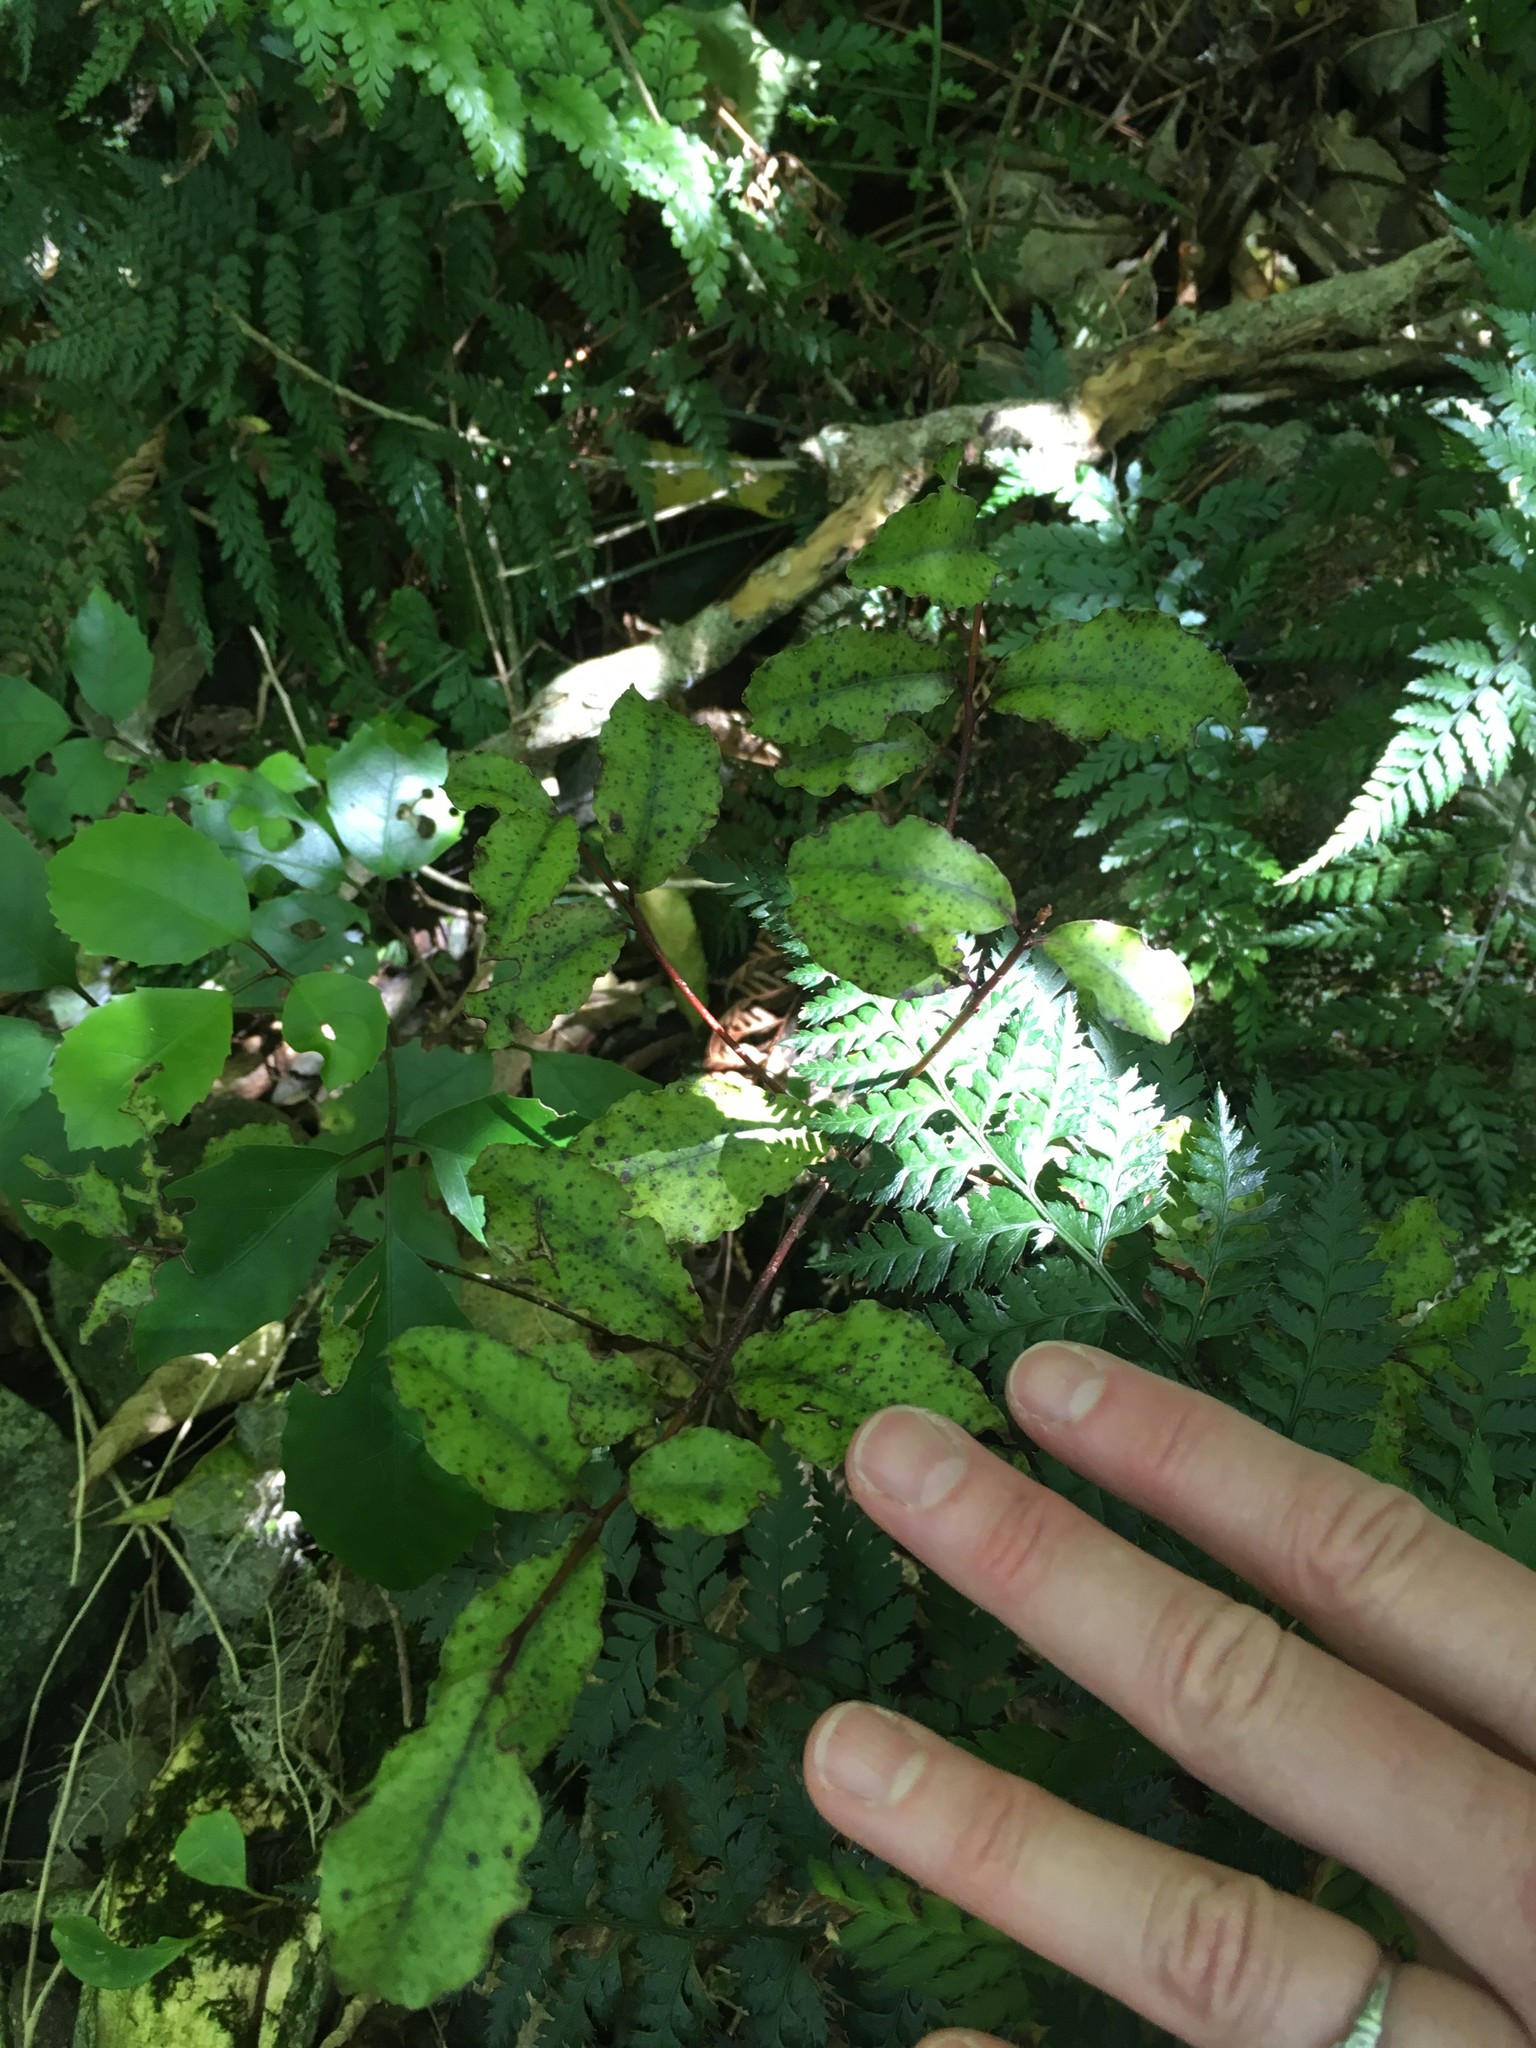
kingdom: Plantae
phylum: Tracheophyta
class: Magnoliopsida
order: Ericales
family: Primulaceae
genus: Myrsine
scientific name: Myrsine australis
